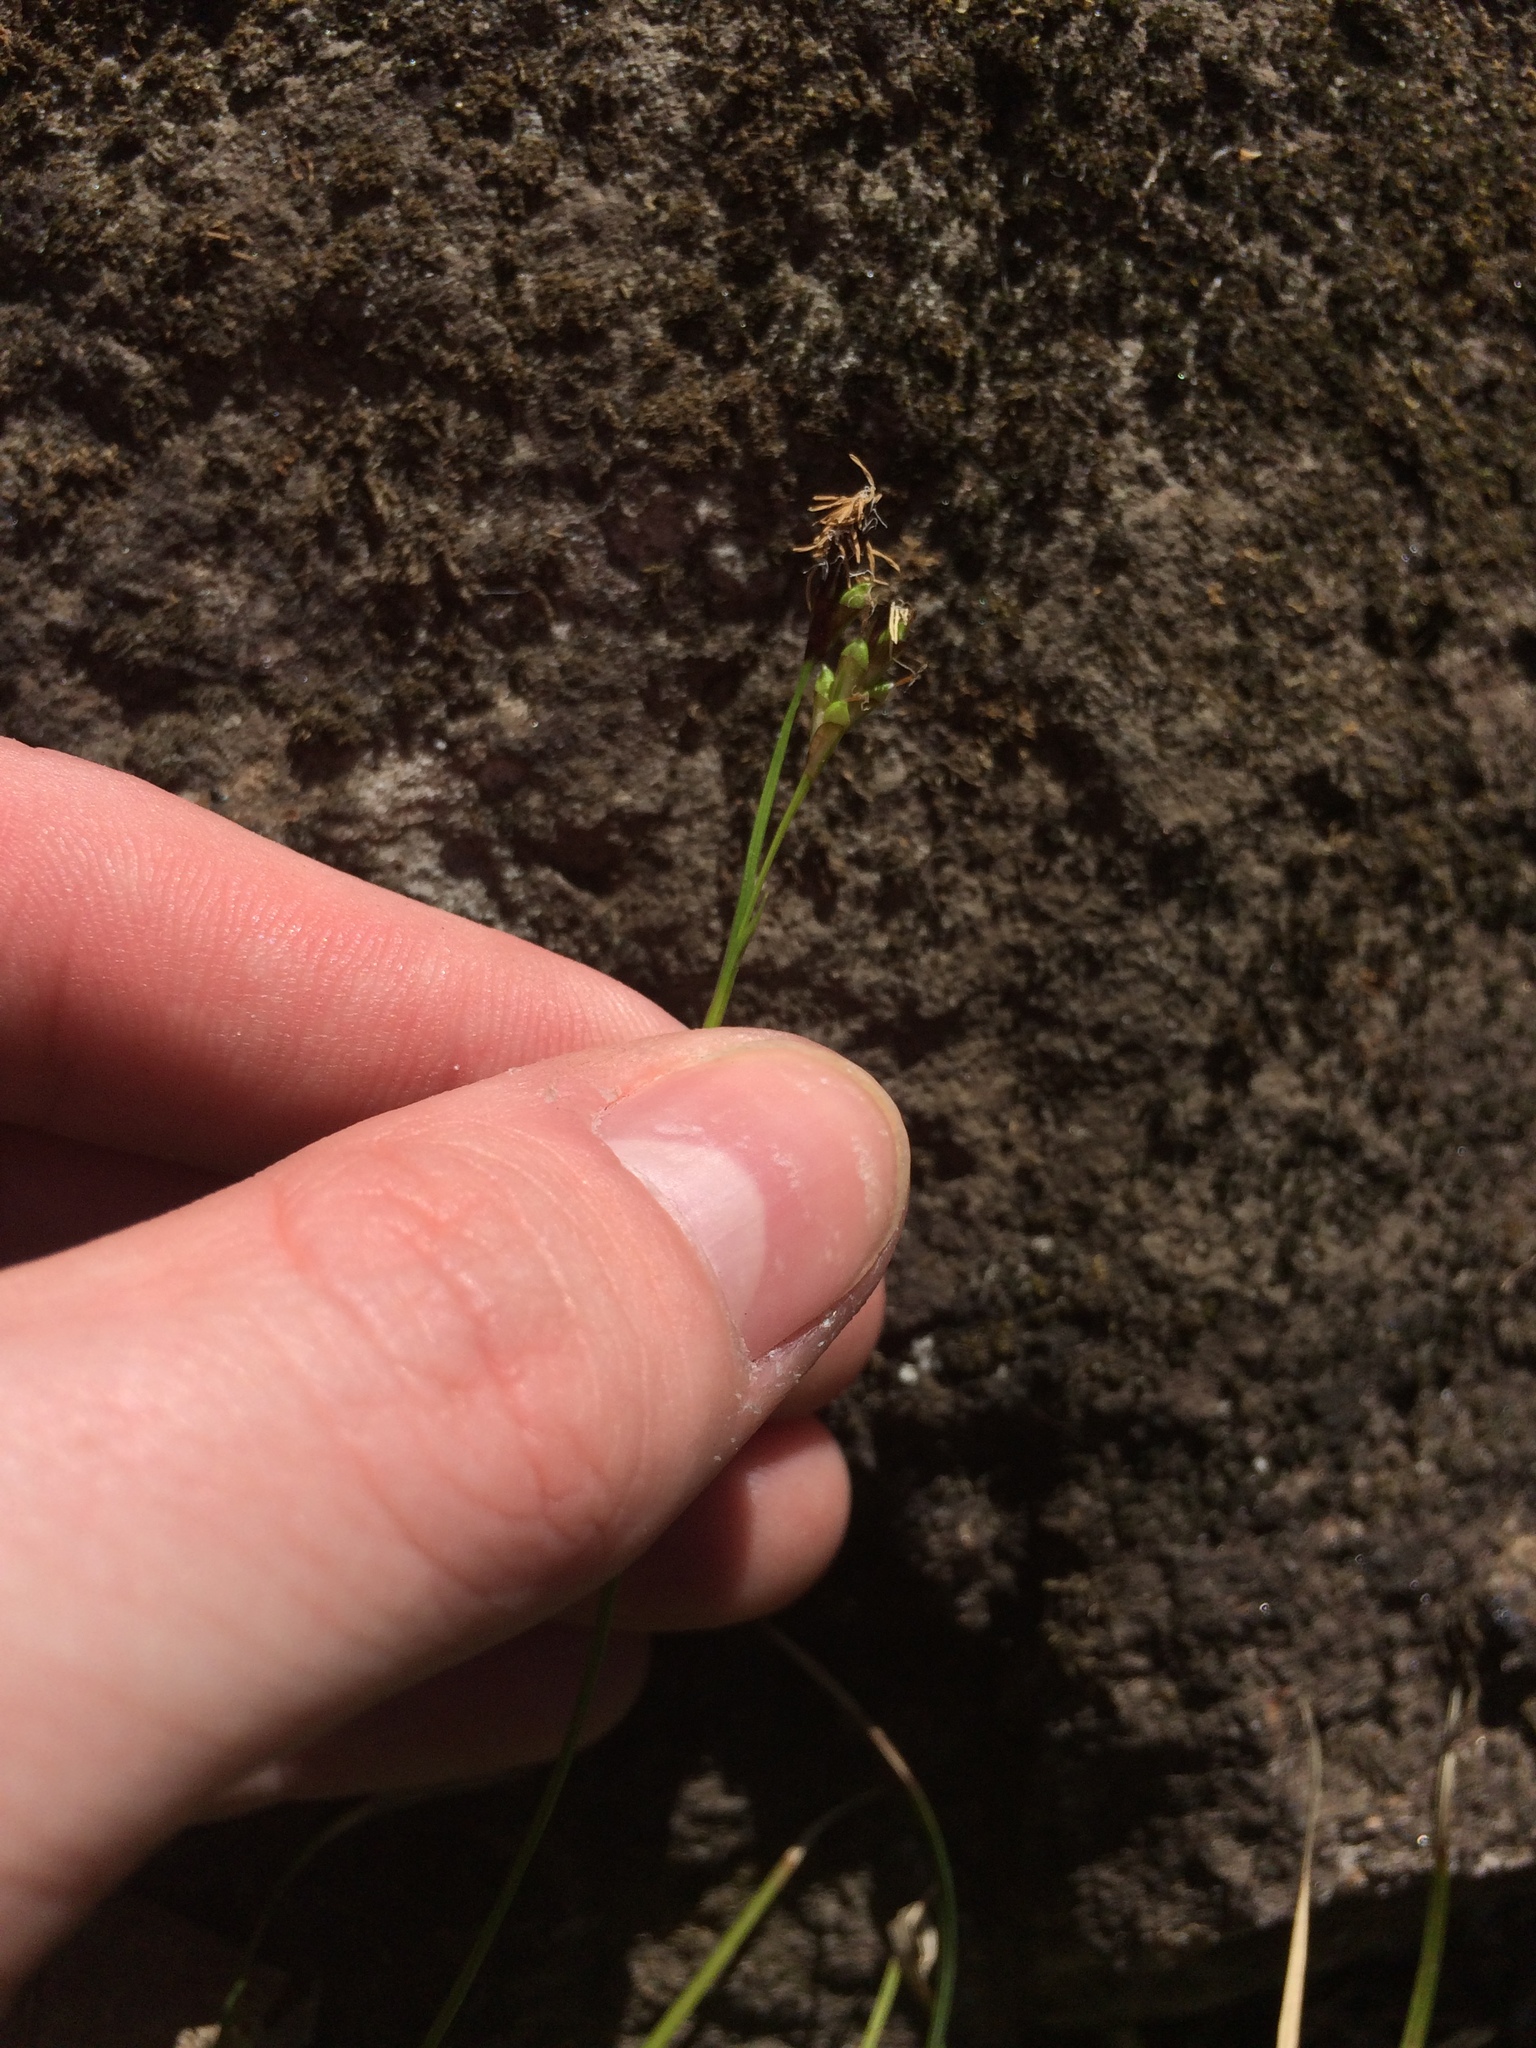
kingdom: Plantae
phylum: Tracheophyta
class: Liliopsida
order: Poales
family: Cyperaceae
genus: Carex
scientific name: Carex pedunculata
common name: Pedunculate sedge
